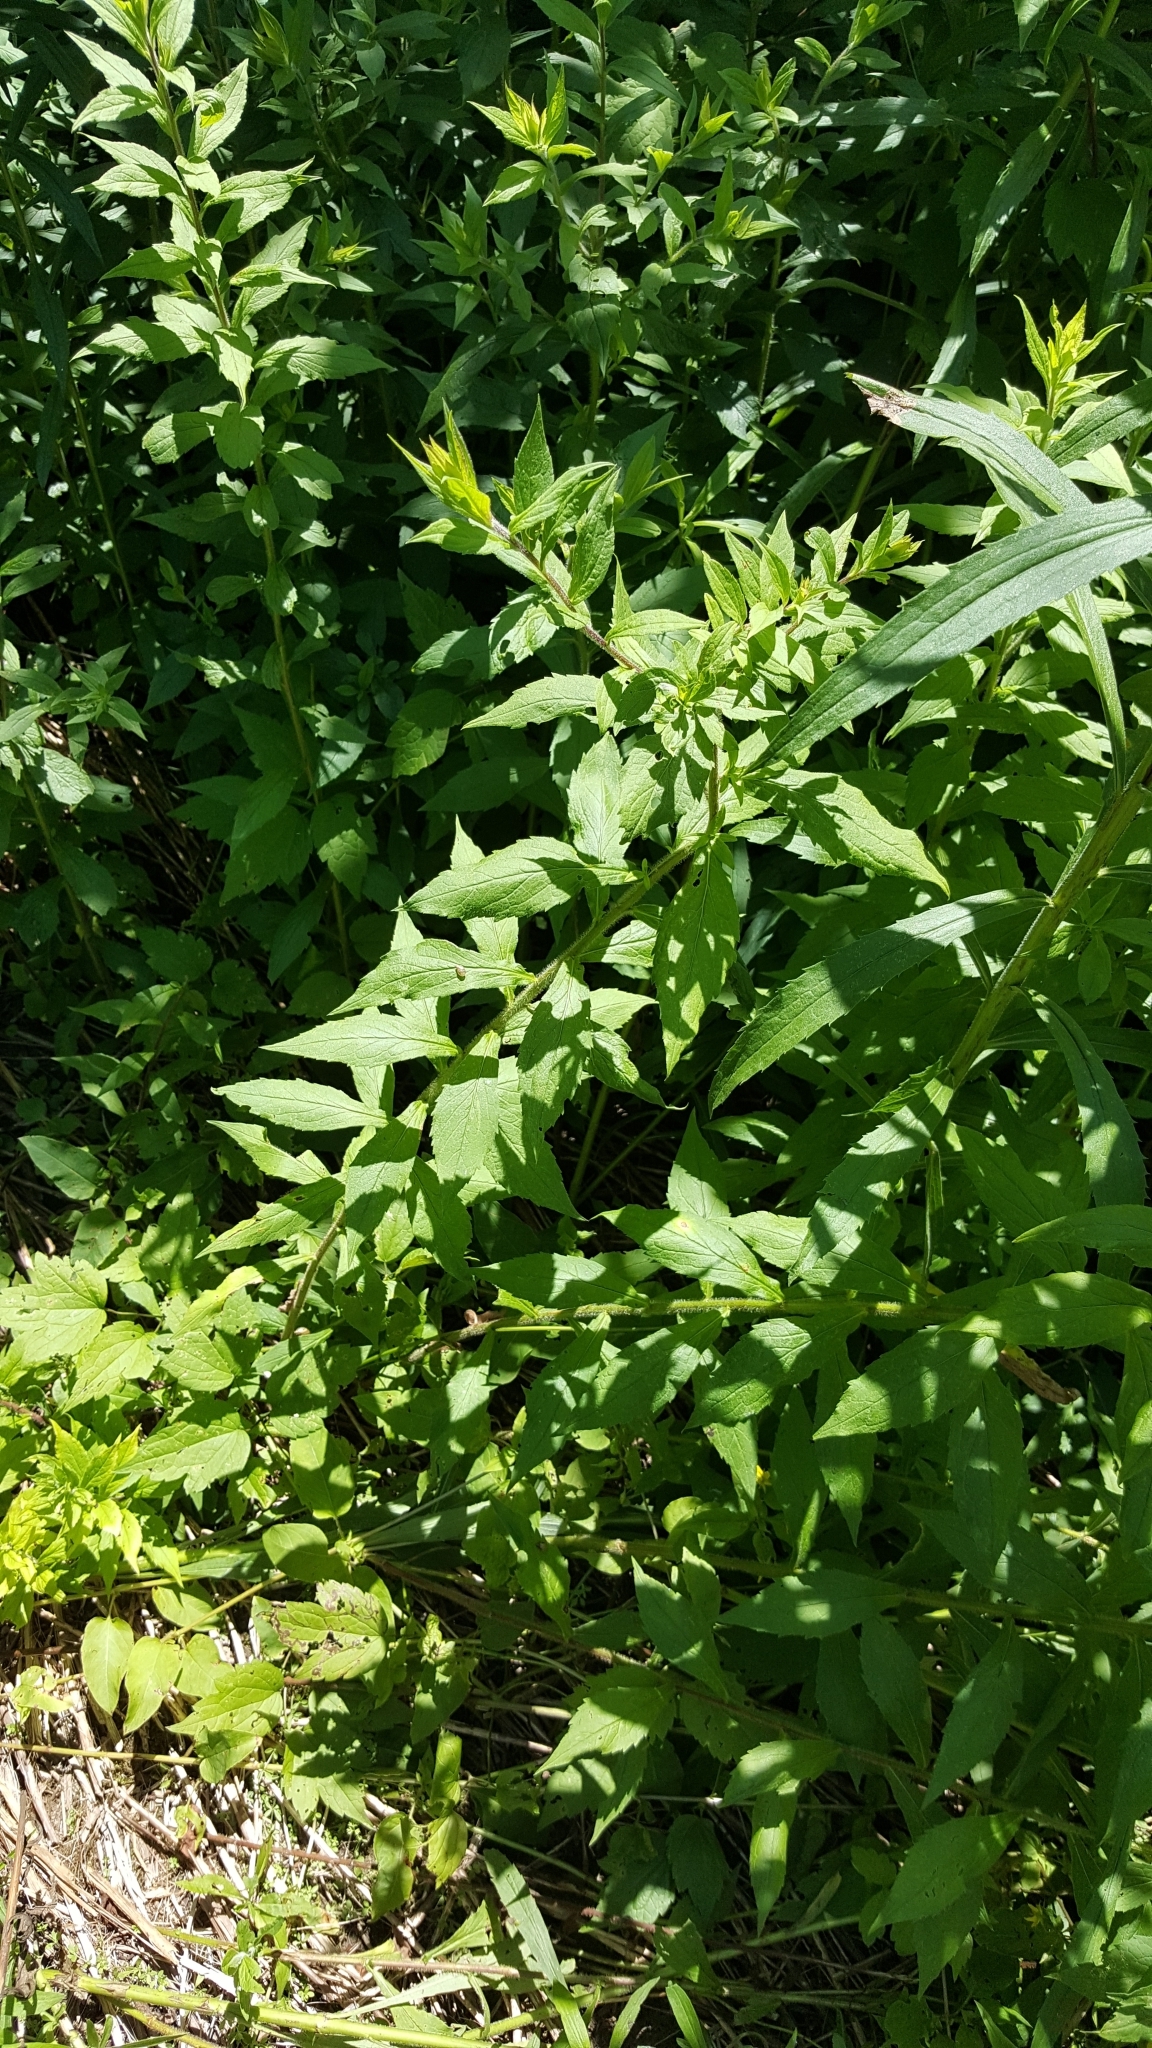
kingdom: Plantae
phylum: Tracheophyta
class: Magnoliopsida
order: Asterales
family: Asteraceae
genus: Solidago
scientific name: Solidago rugosa
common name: Rough-stemmed goldenrod
